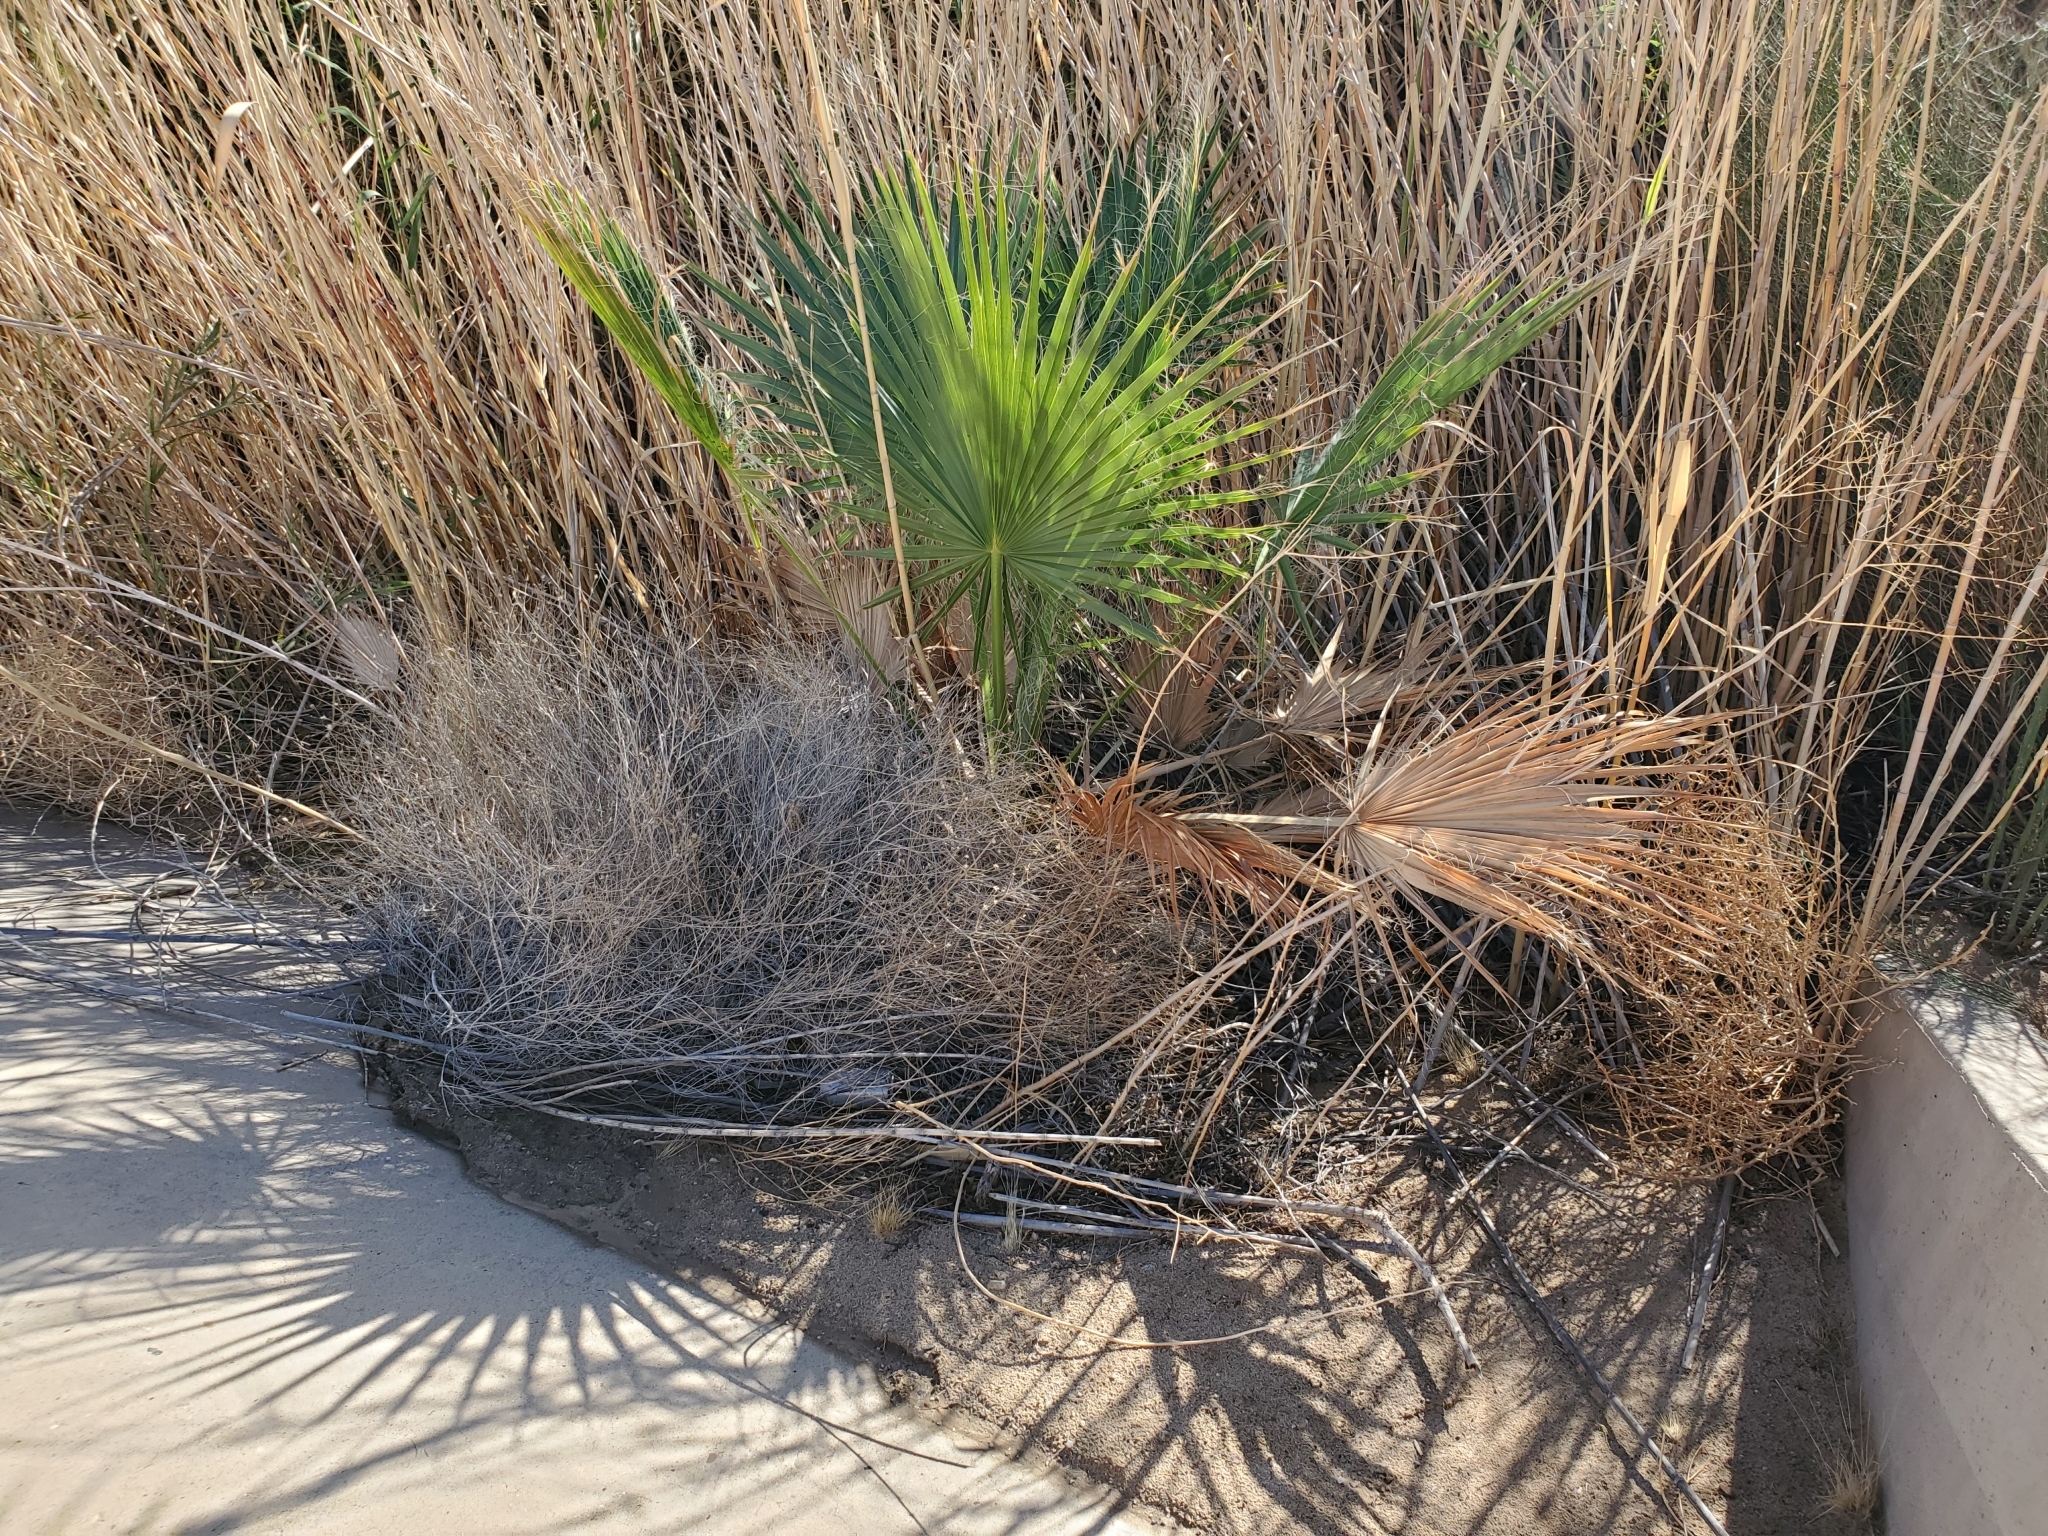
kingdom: Plantae
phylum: Tracheophyta
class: Liliopsida
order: Arecales
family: Arecaceae
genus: Washingtonia
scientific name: Washingtonia filifera
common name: California fan palm
